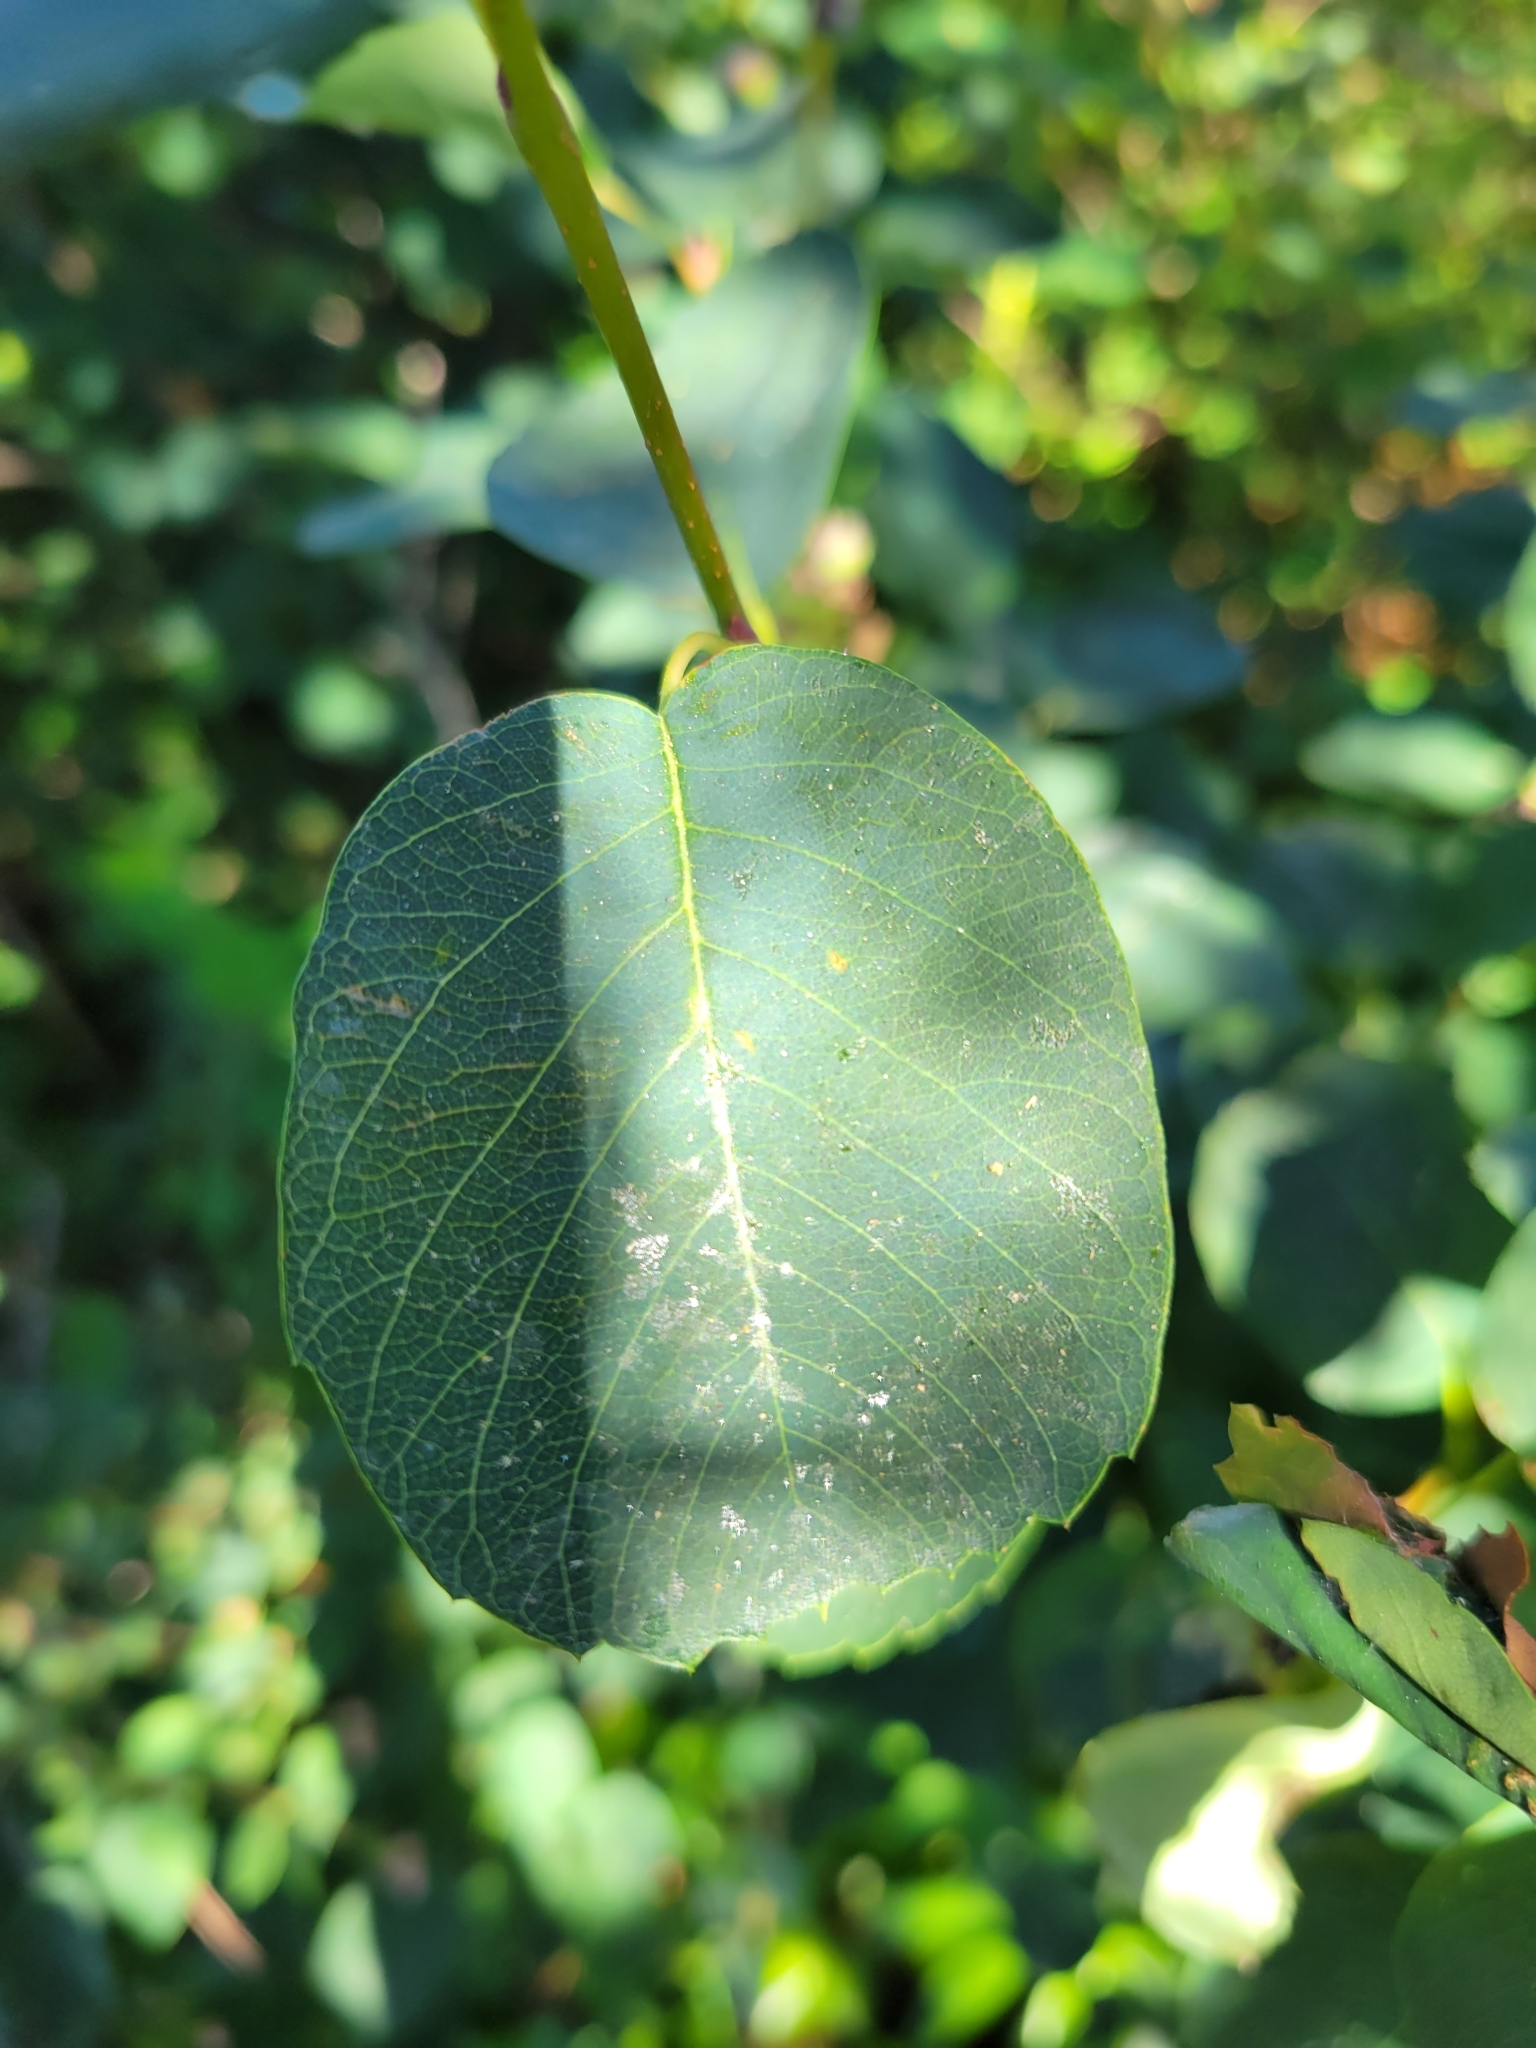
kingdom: Plantae
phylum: Tracheophyta
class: Magnoliopsida
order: Rosales
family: Rosaceae
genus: Amelanchier
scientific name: Amelanchier alnifolia
